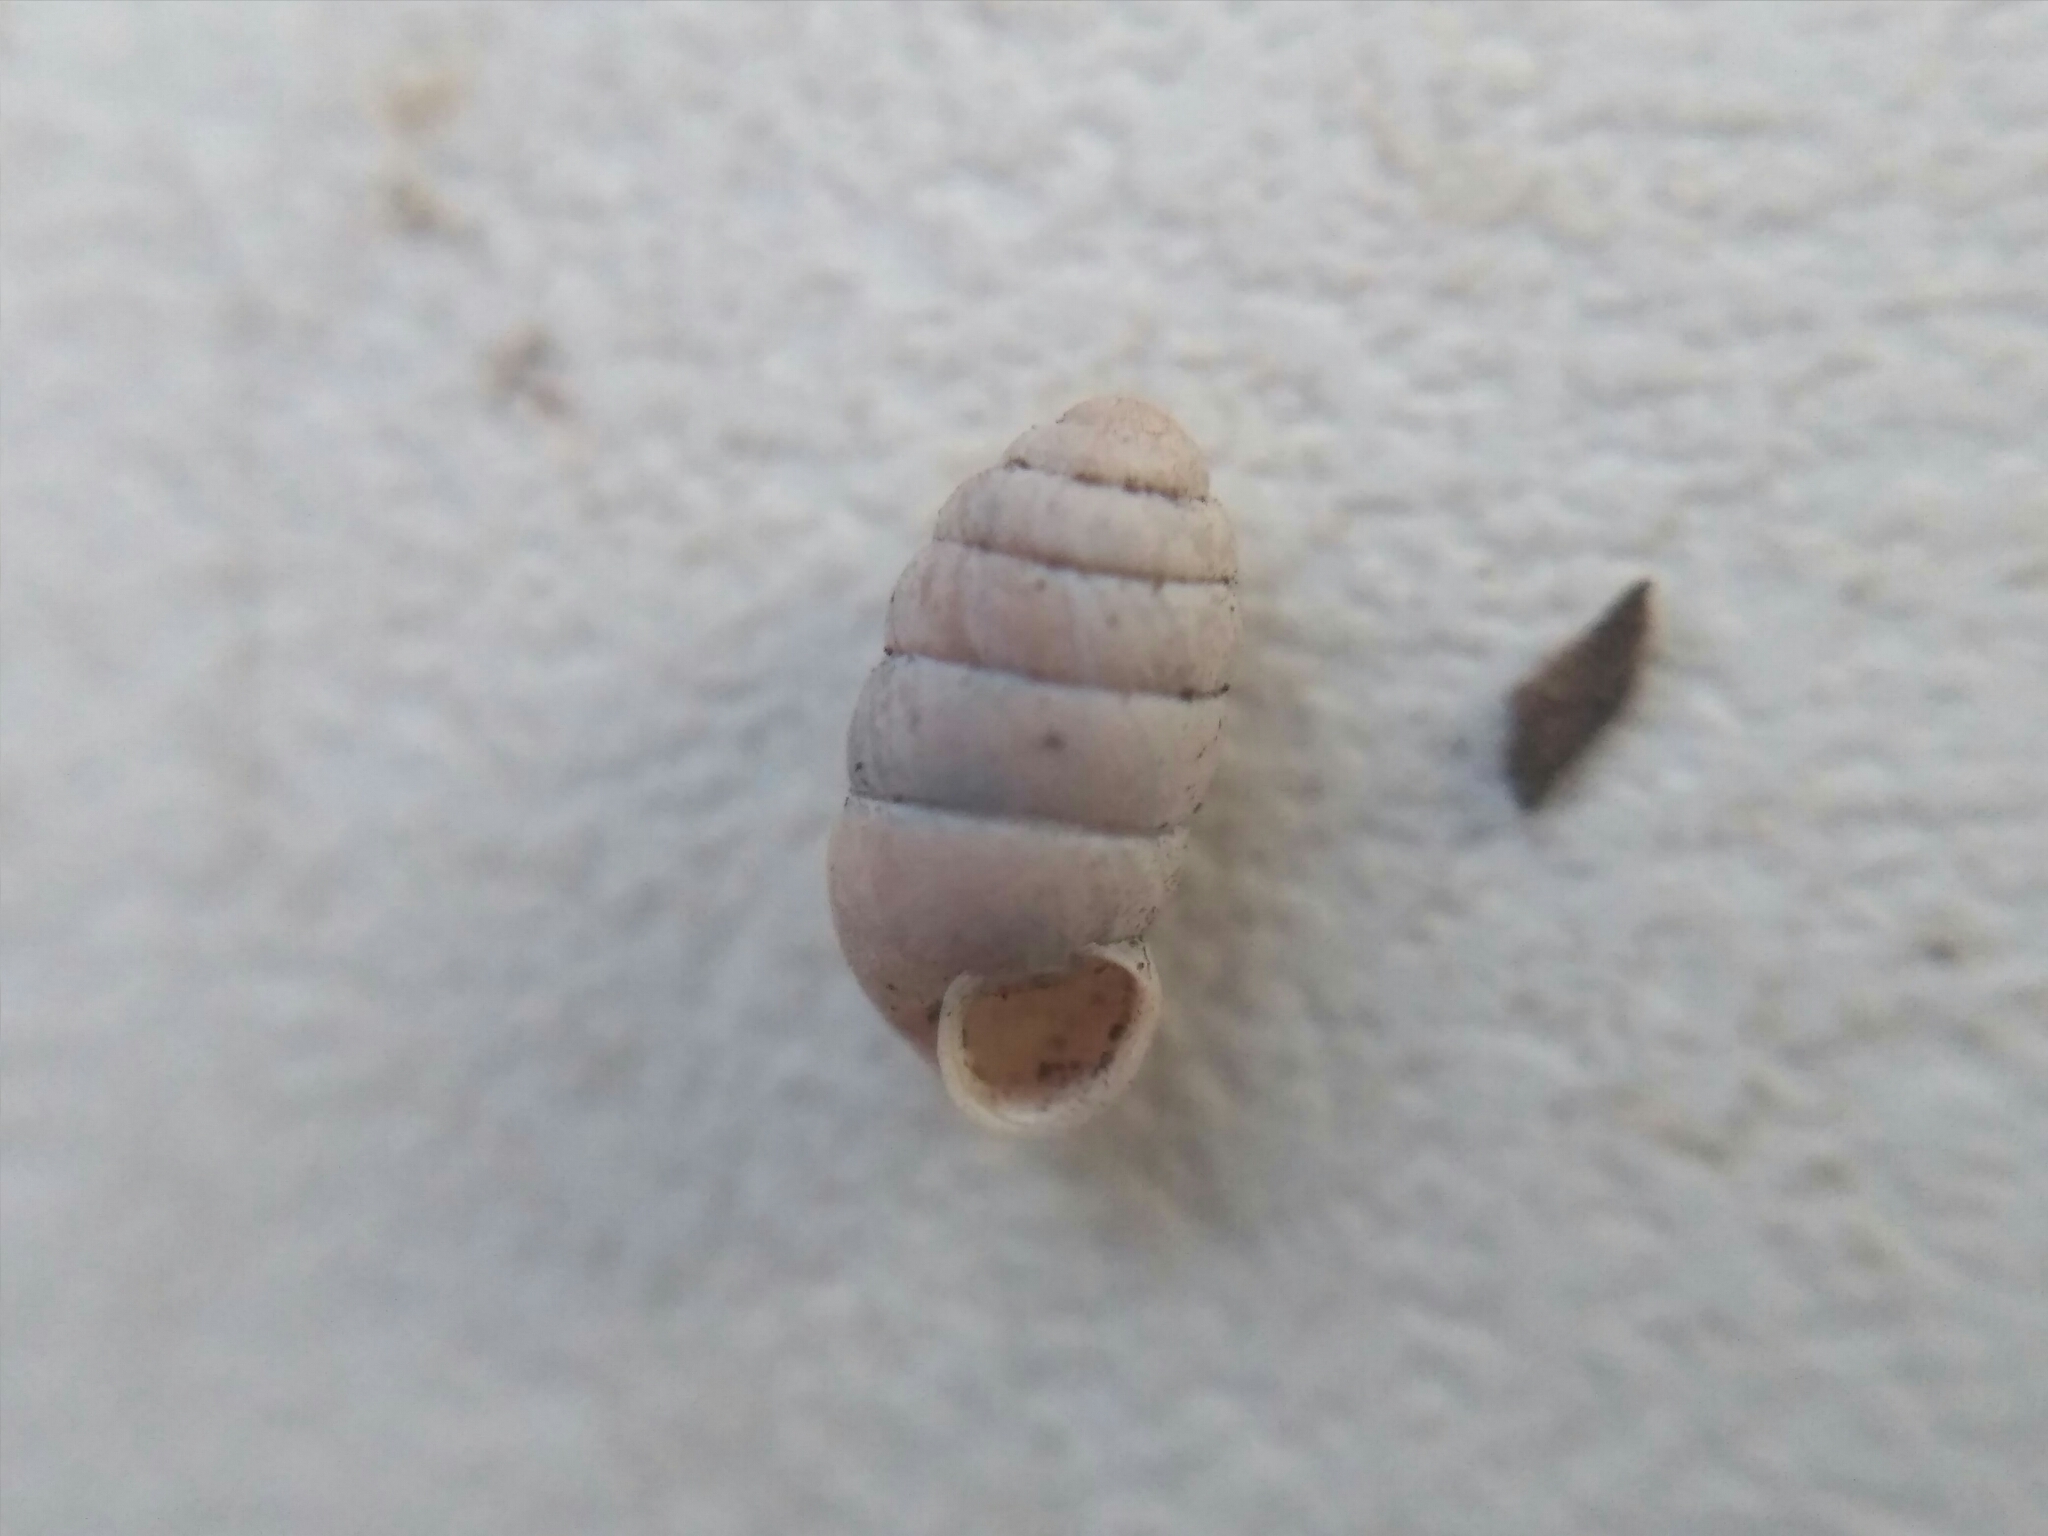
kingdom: Animalia
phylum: Mollusca
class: Gastropoda
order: Stylommatophora
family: Pupillidae
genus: Pupilla
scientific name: Pupilla muscorum
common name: Moss chrysalis snail
